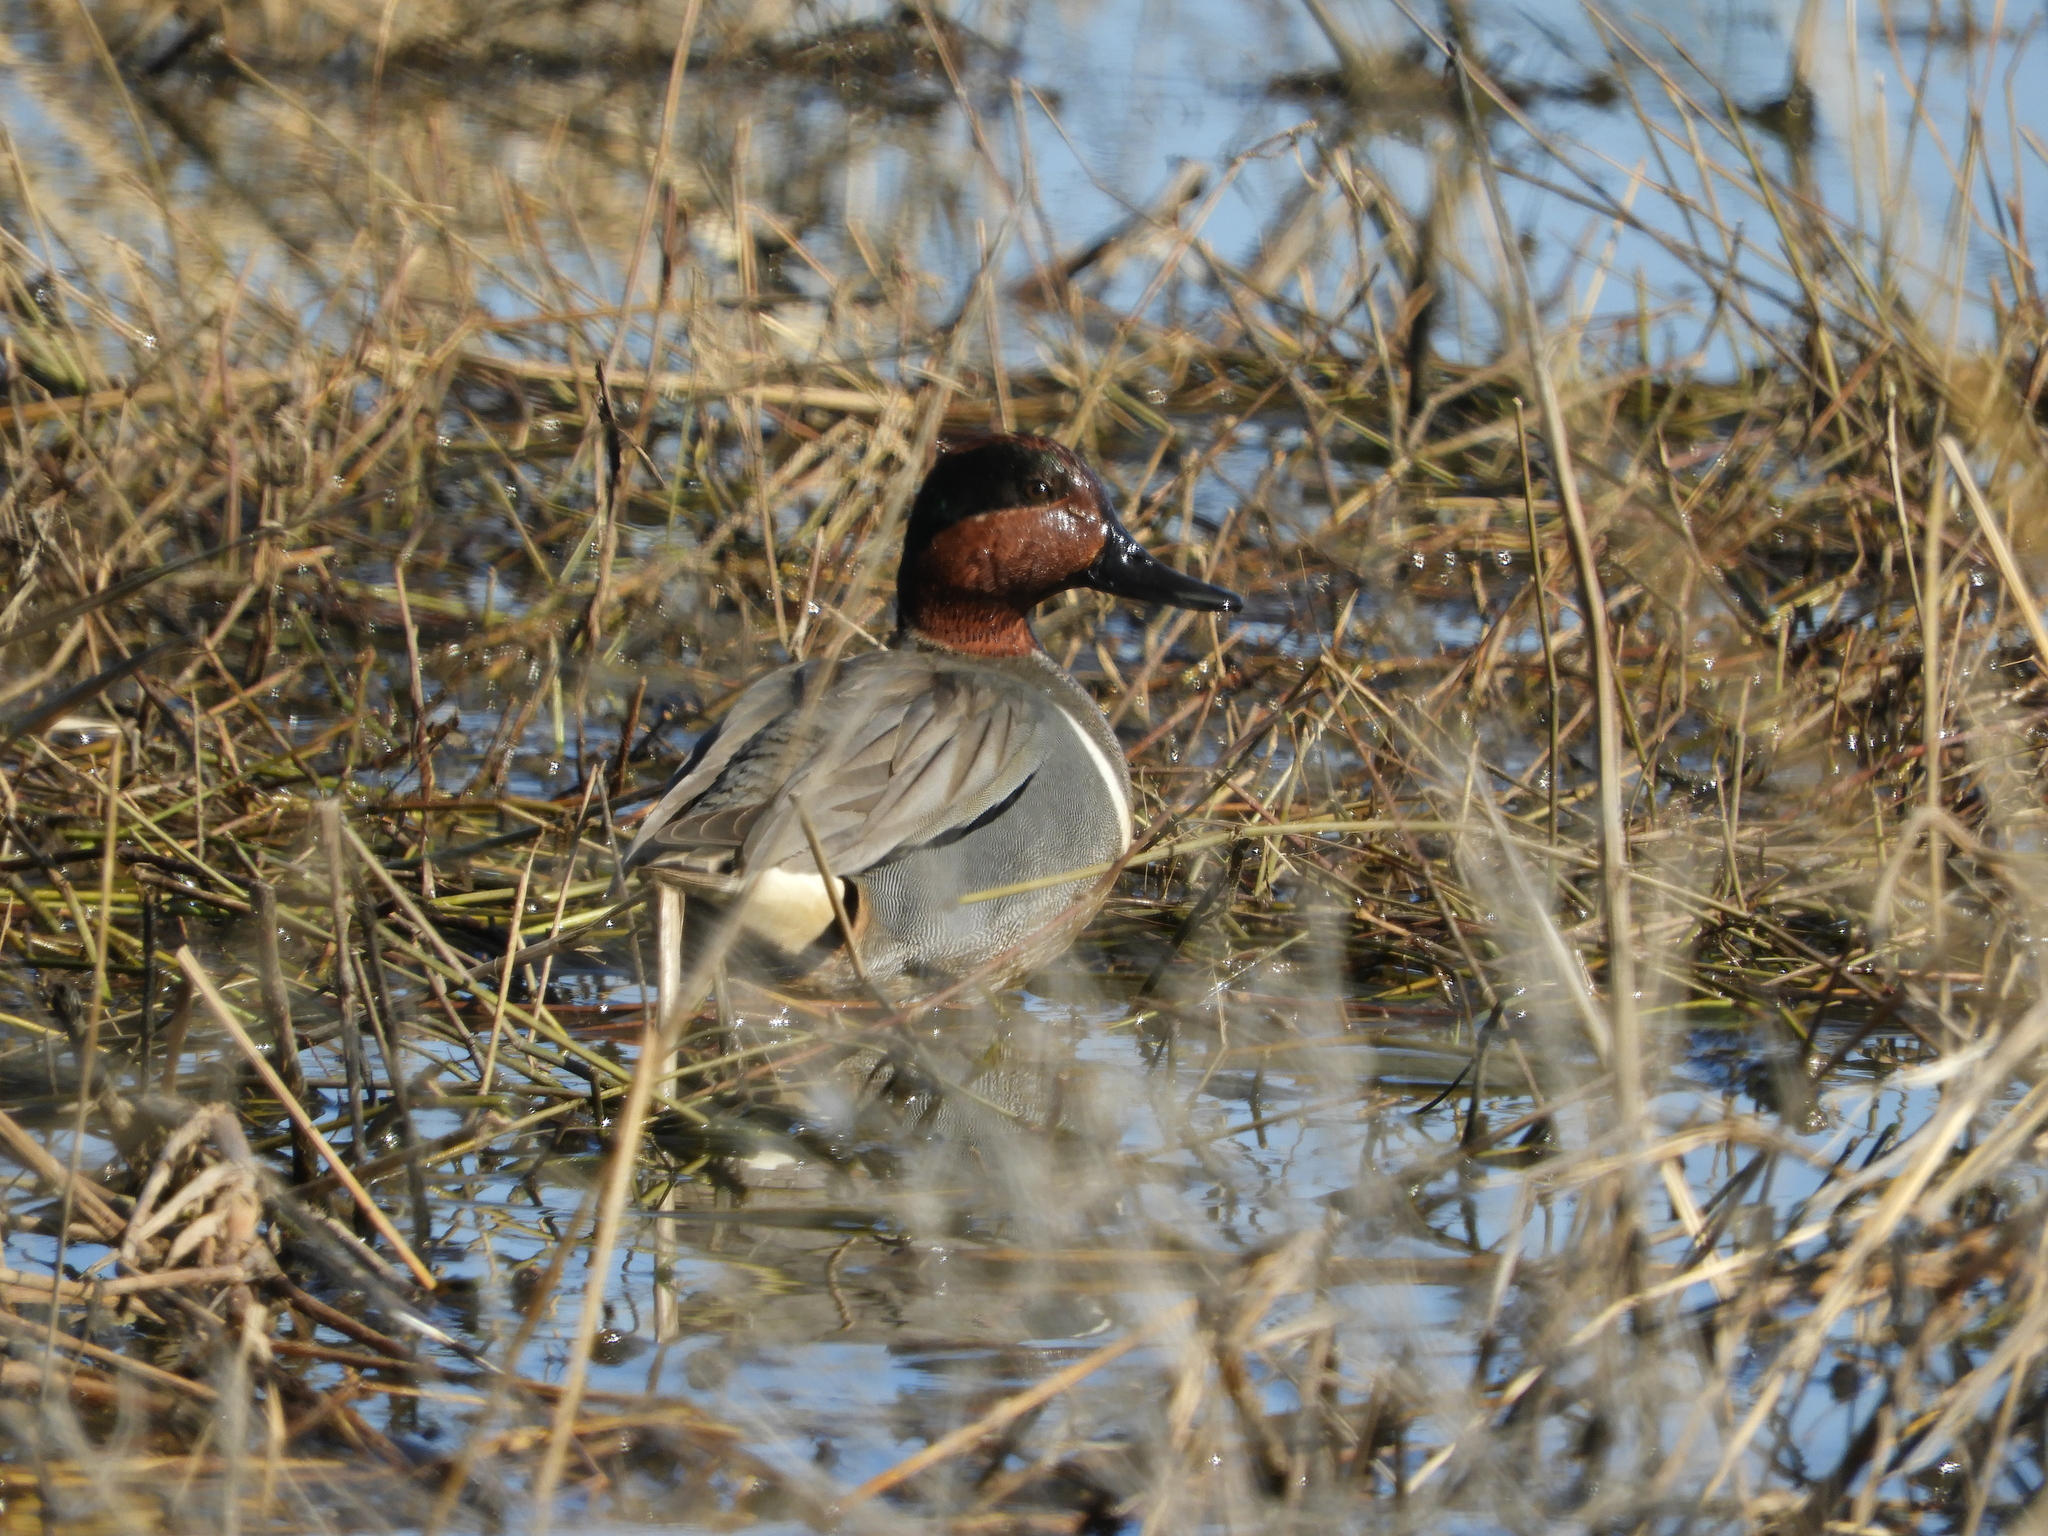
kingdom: Animalia
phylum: Chordata
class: Aves
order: Anseriformes
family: Anatidae
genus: Anas
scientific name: Anas crecca
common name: Eurasian teal
